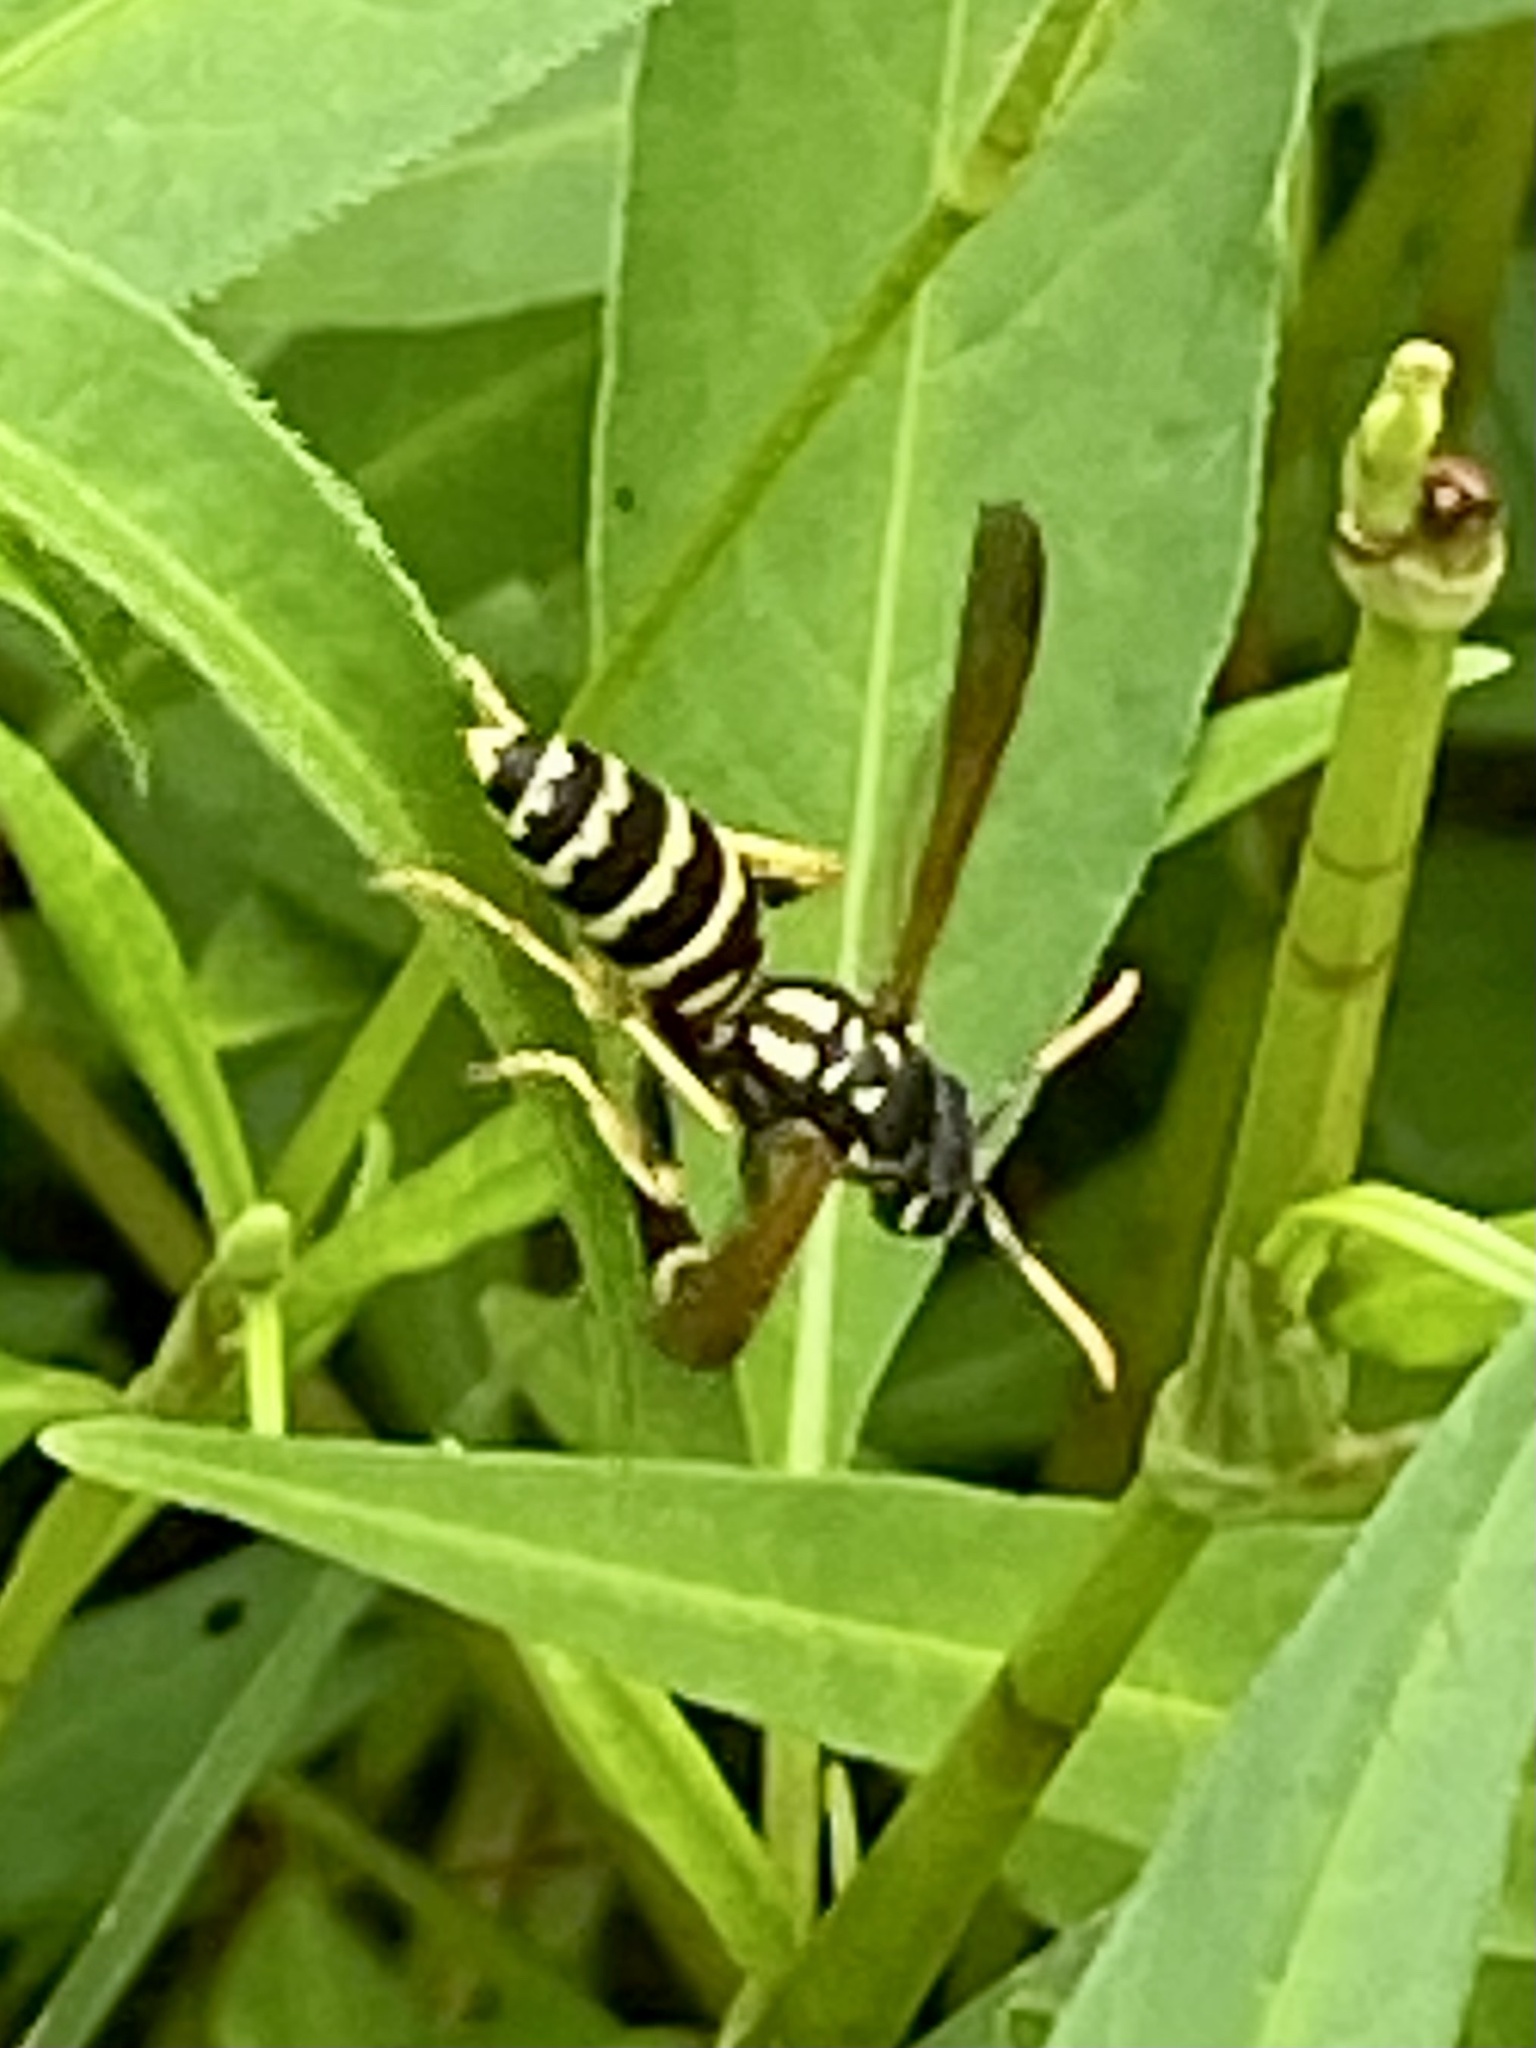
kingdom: Animalia
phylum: Arthropoda
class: Insecta
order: Hymenoptera
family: Eumenidae
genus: Polistes
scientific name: Polistes dominula
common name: Paper wasp
